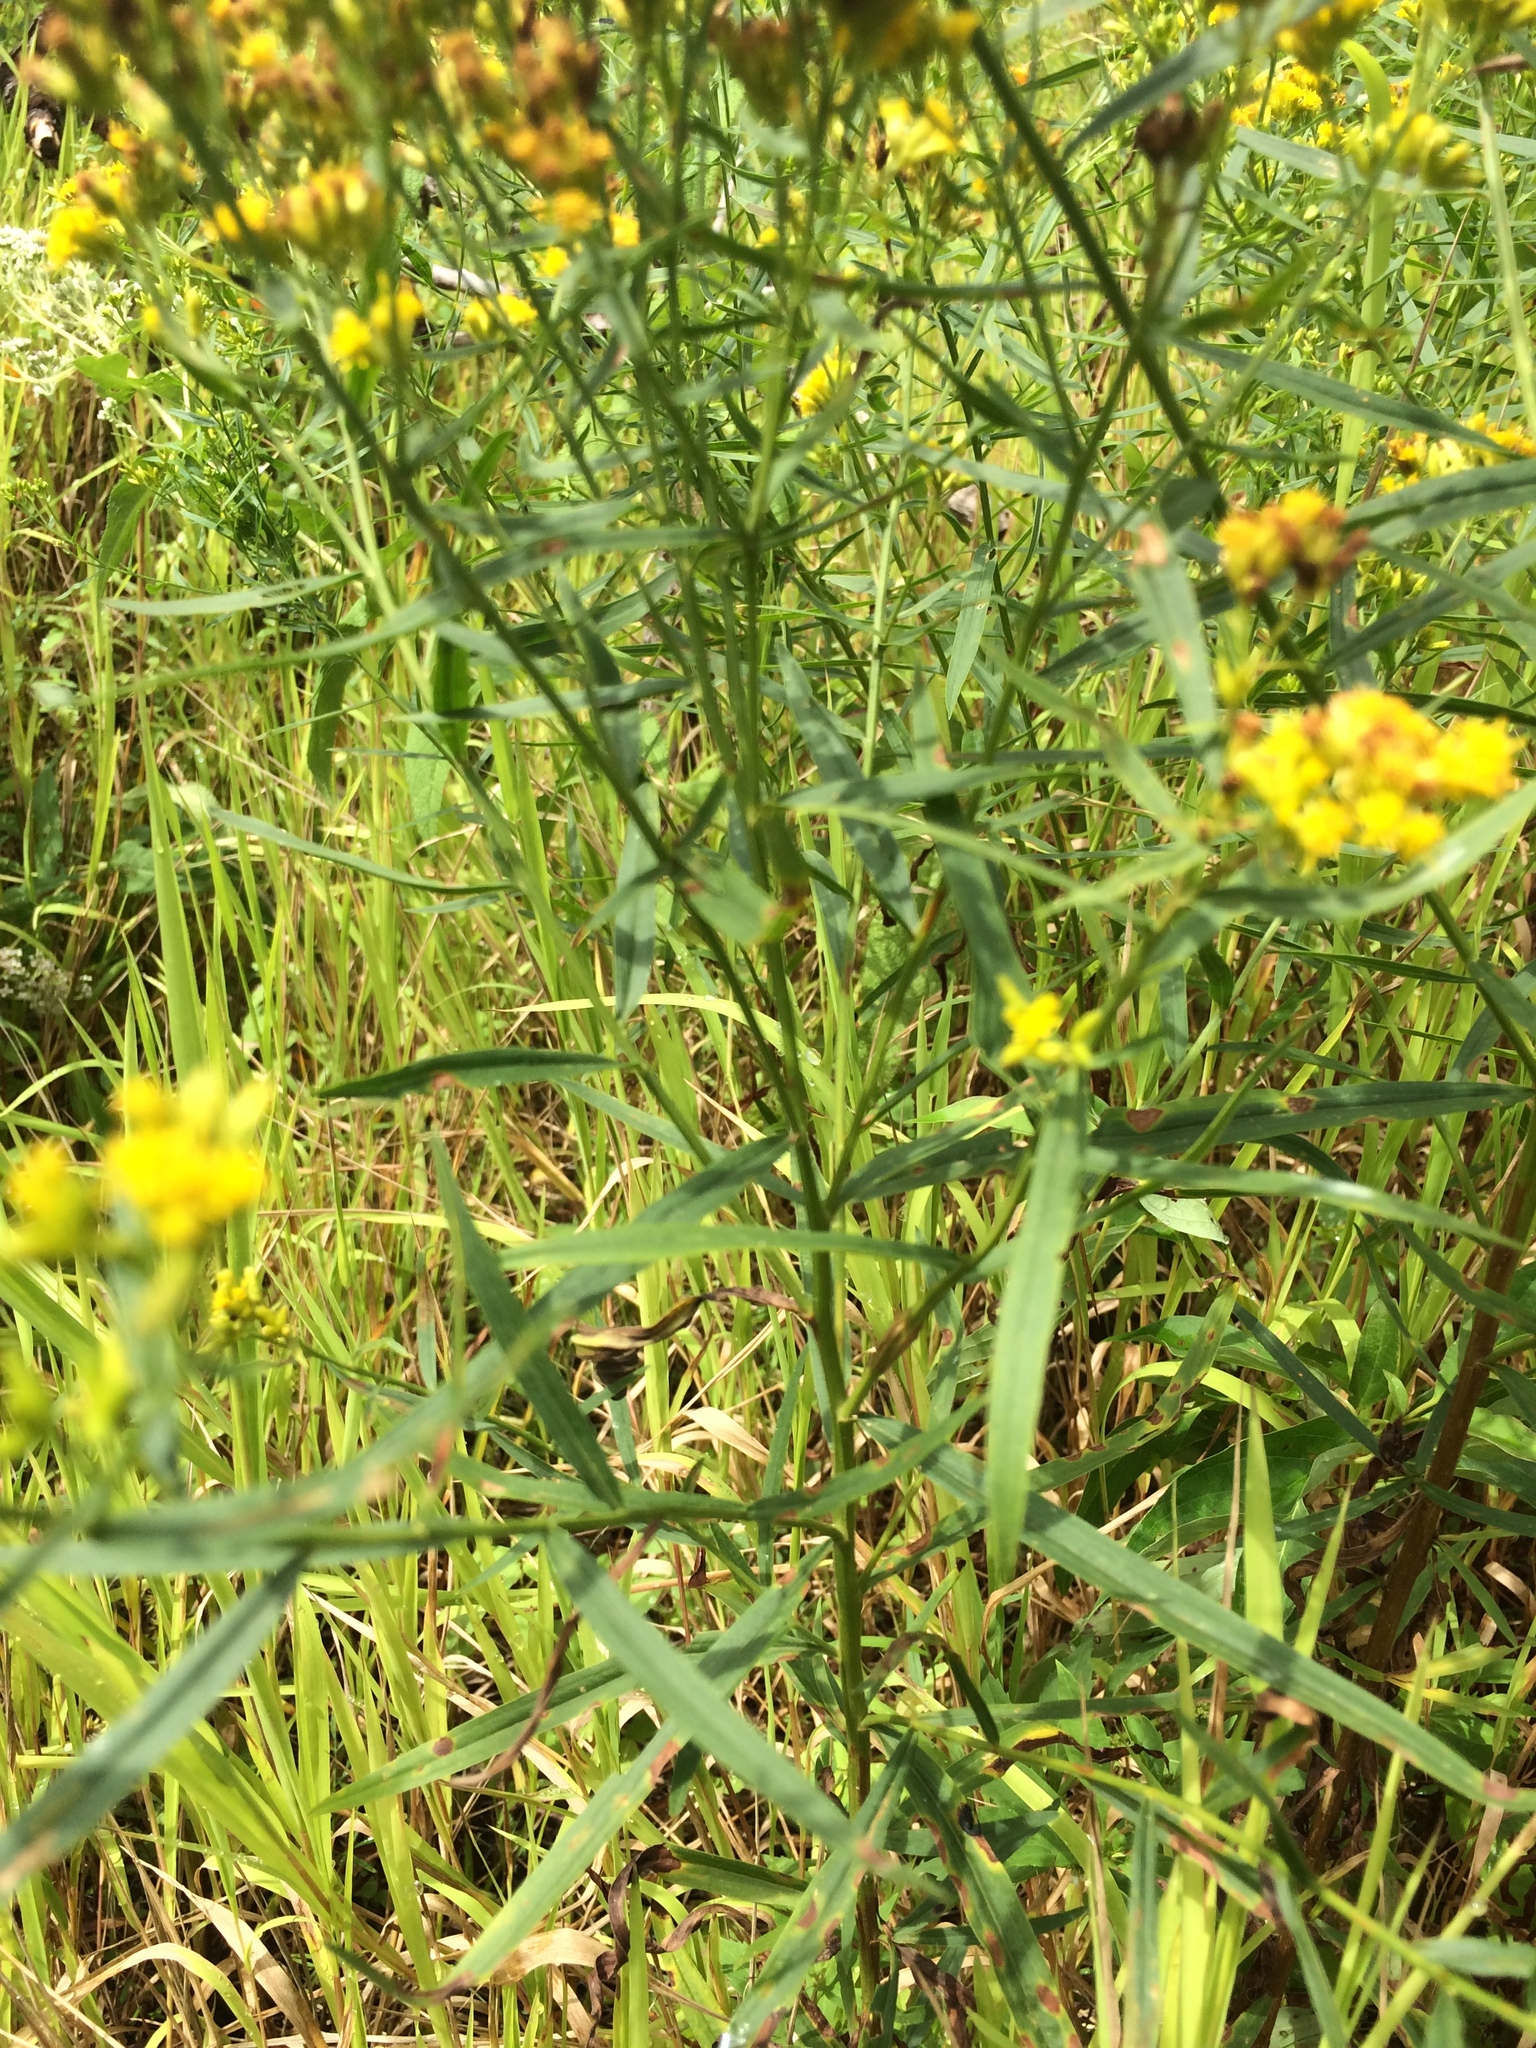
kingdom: Plantae
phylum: Tracheophyta
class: Magnoliopsida
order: Asterales
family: Asteraceae
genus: Euthamia
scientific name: Euthamia graminifolia
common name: Common goldentop
